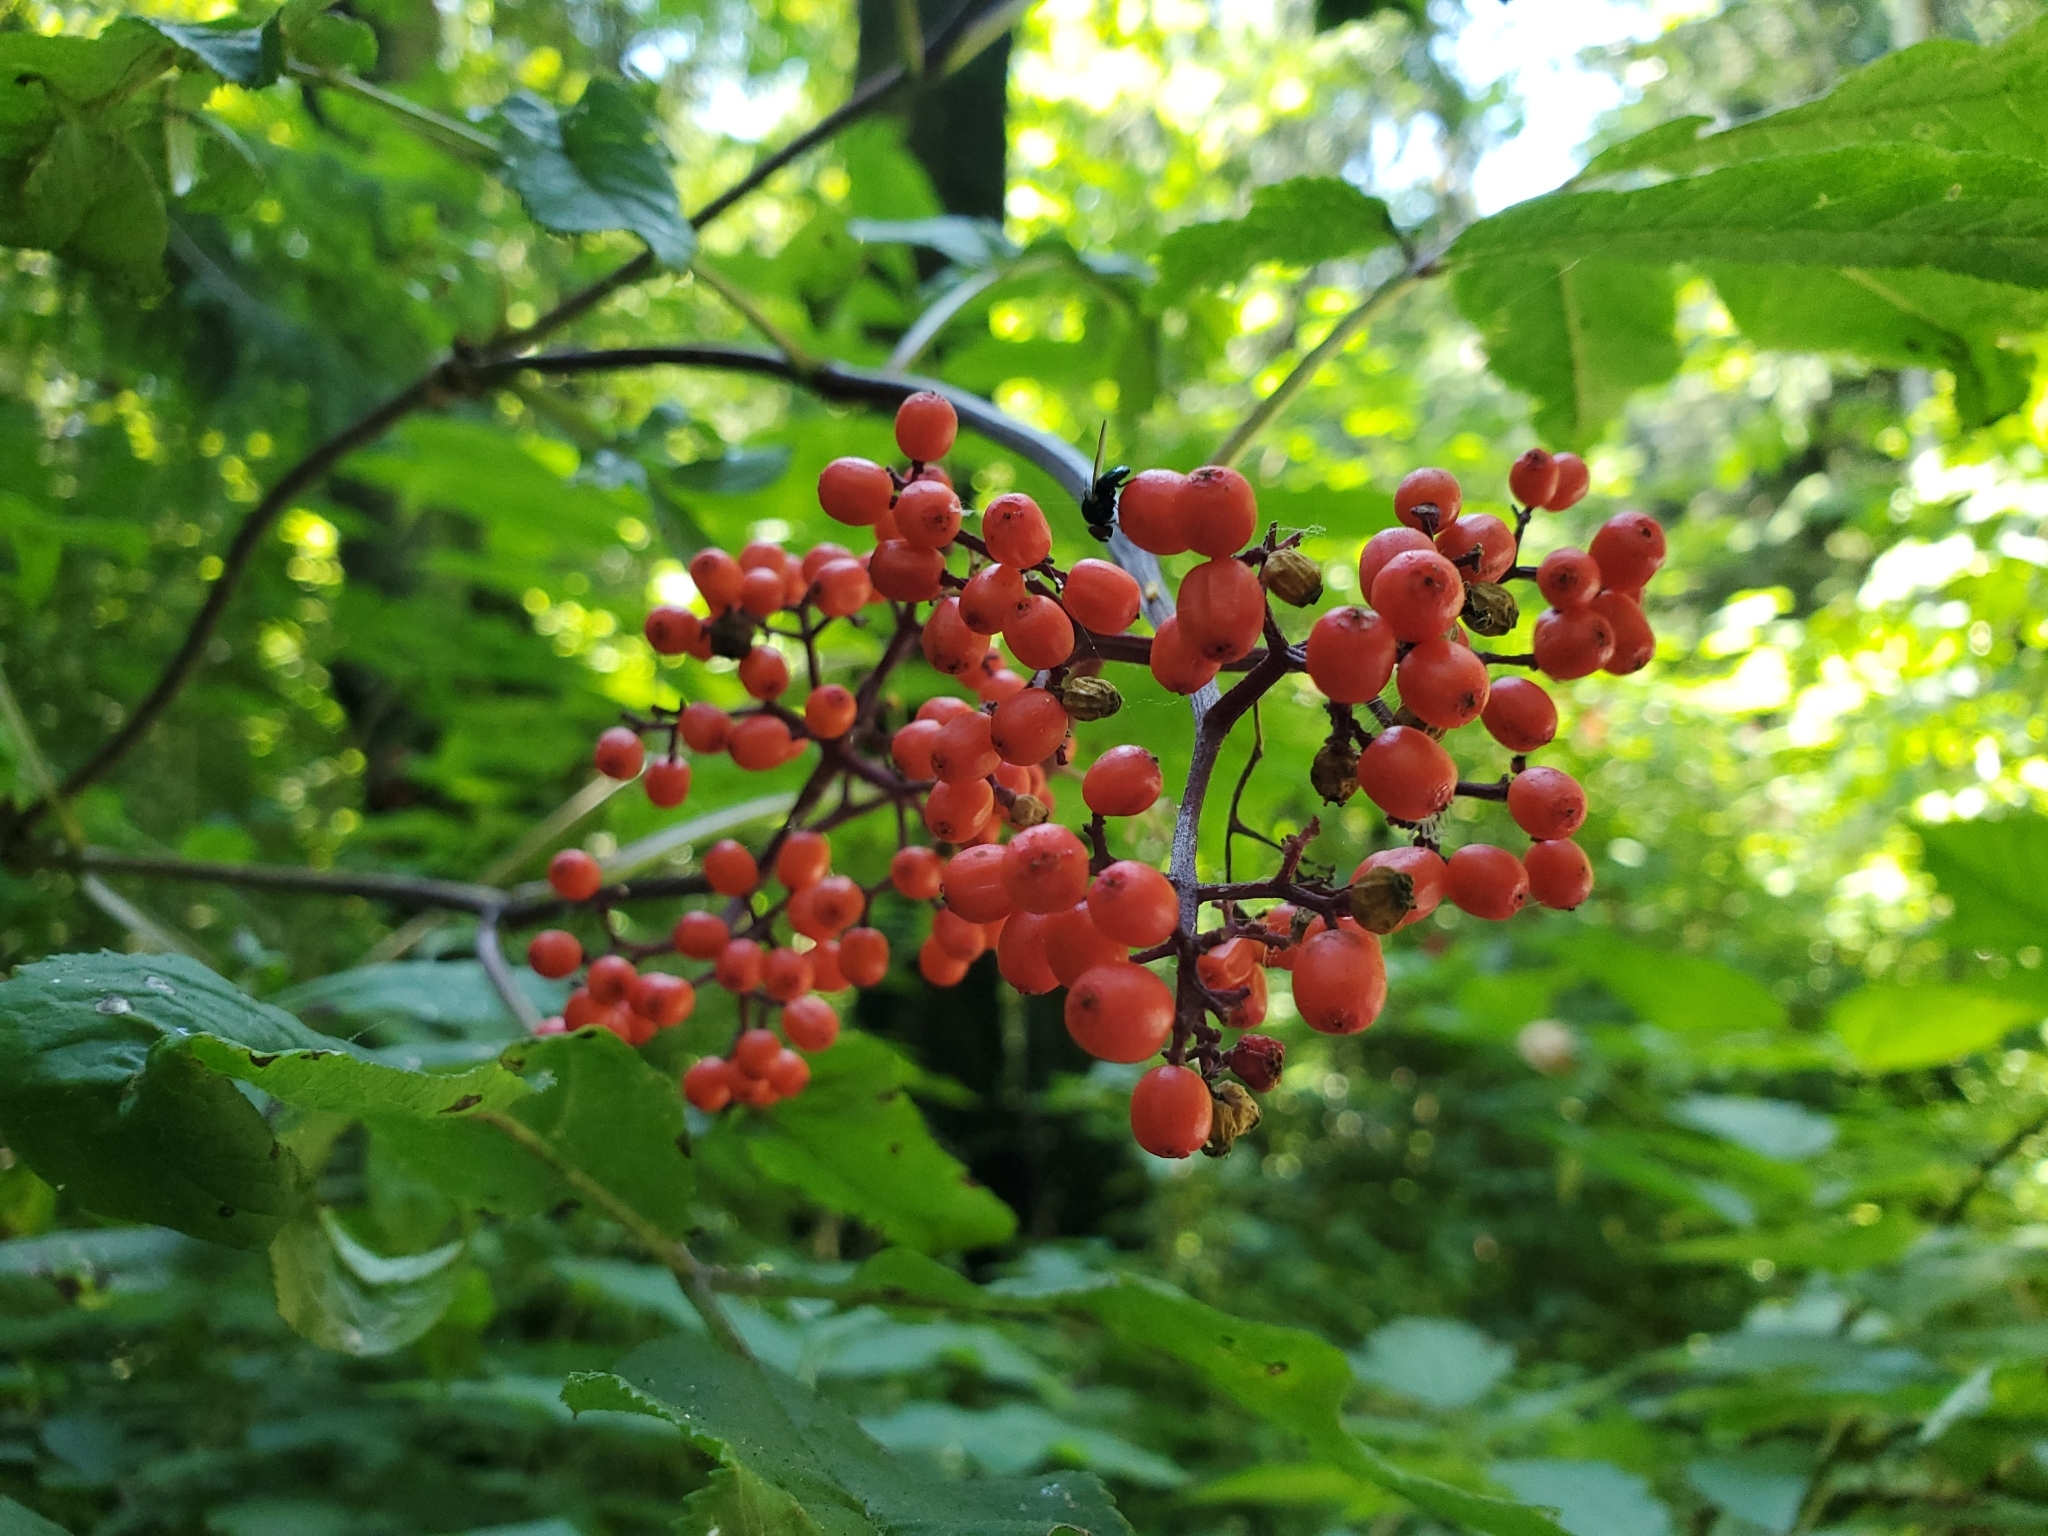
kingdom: Plantae
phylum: Tracheophyta
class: Magnoliopsida
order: Dipsacales
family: Viburnaceae
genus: Sambucus
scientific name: Sambucus racemosa
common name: Red-berried elder
